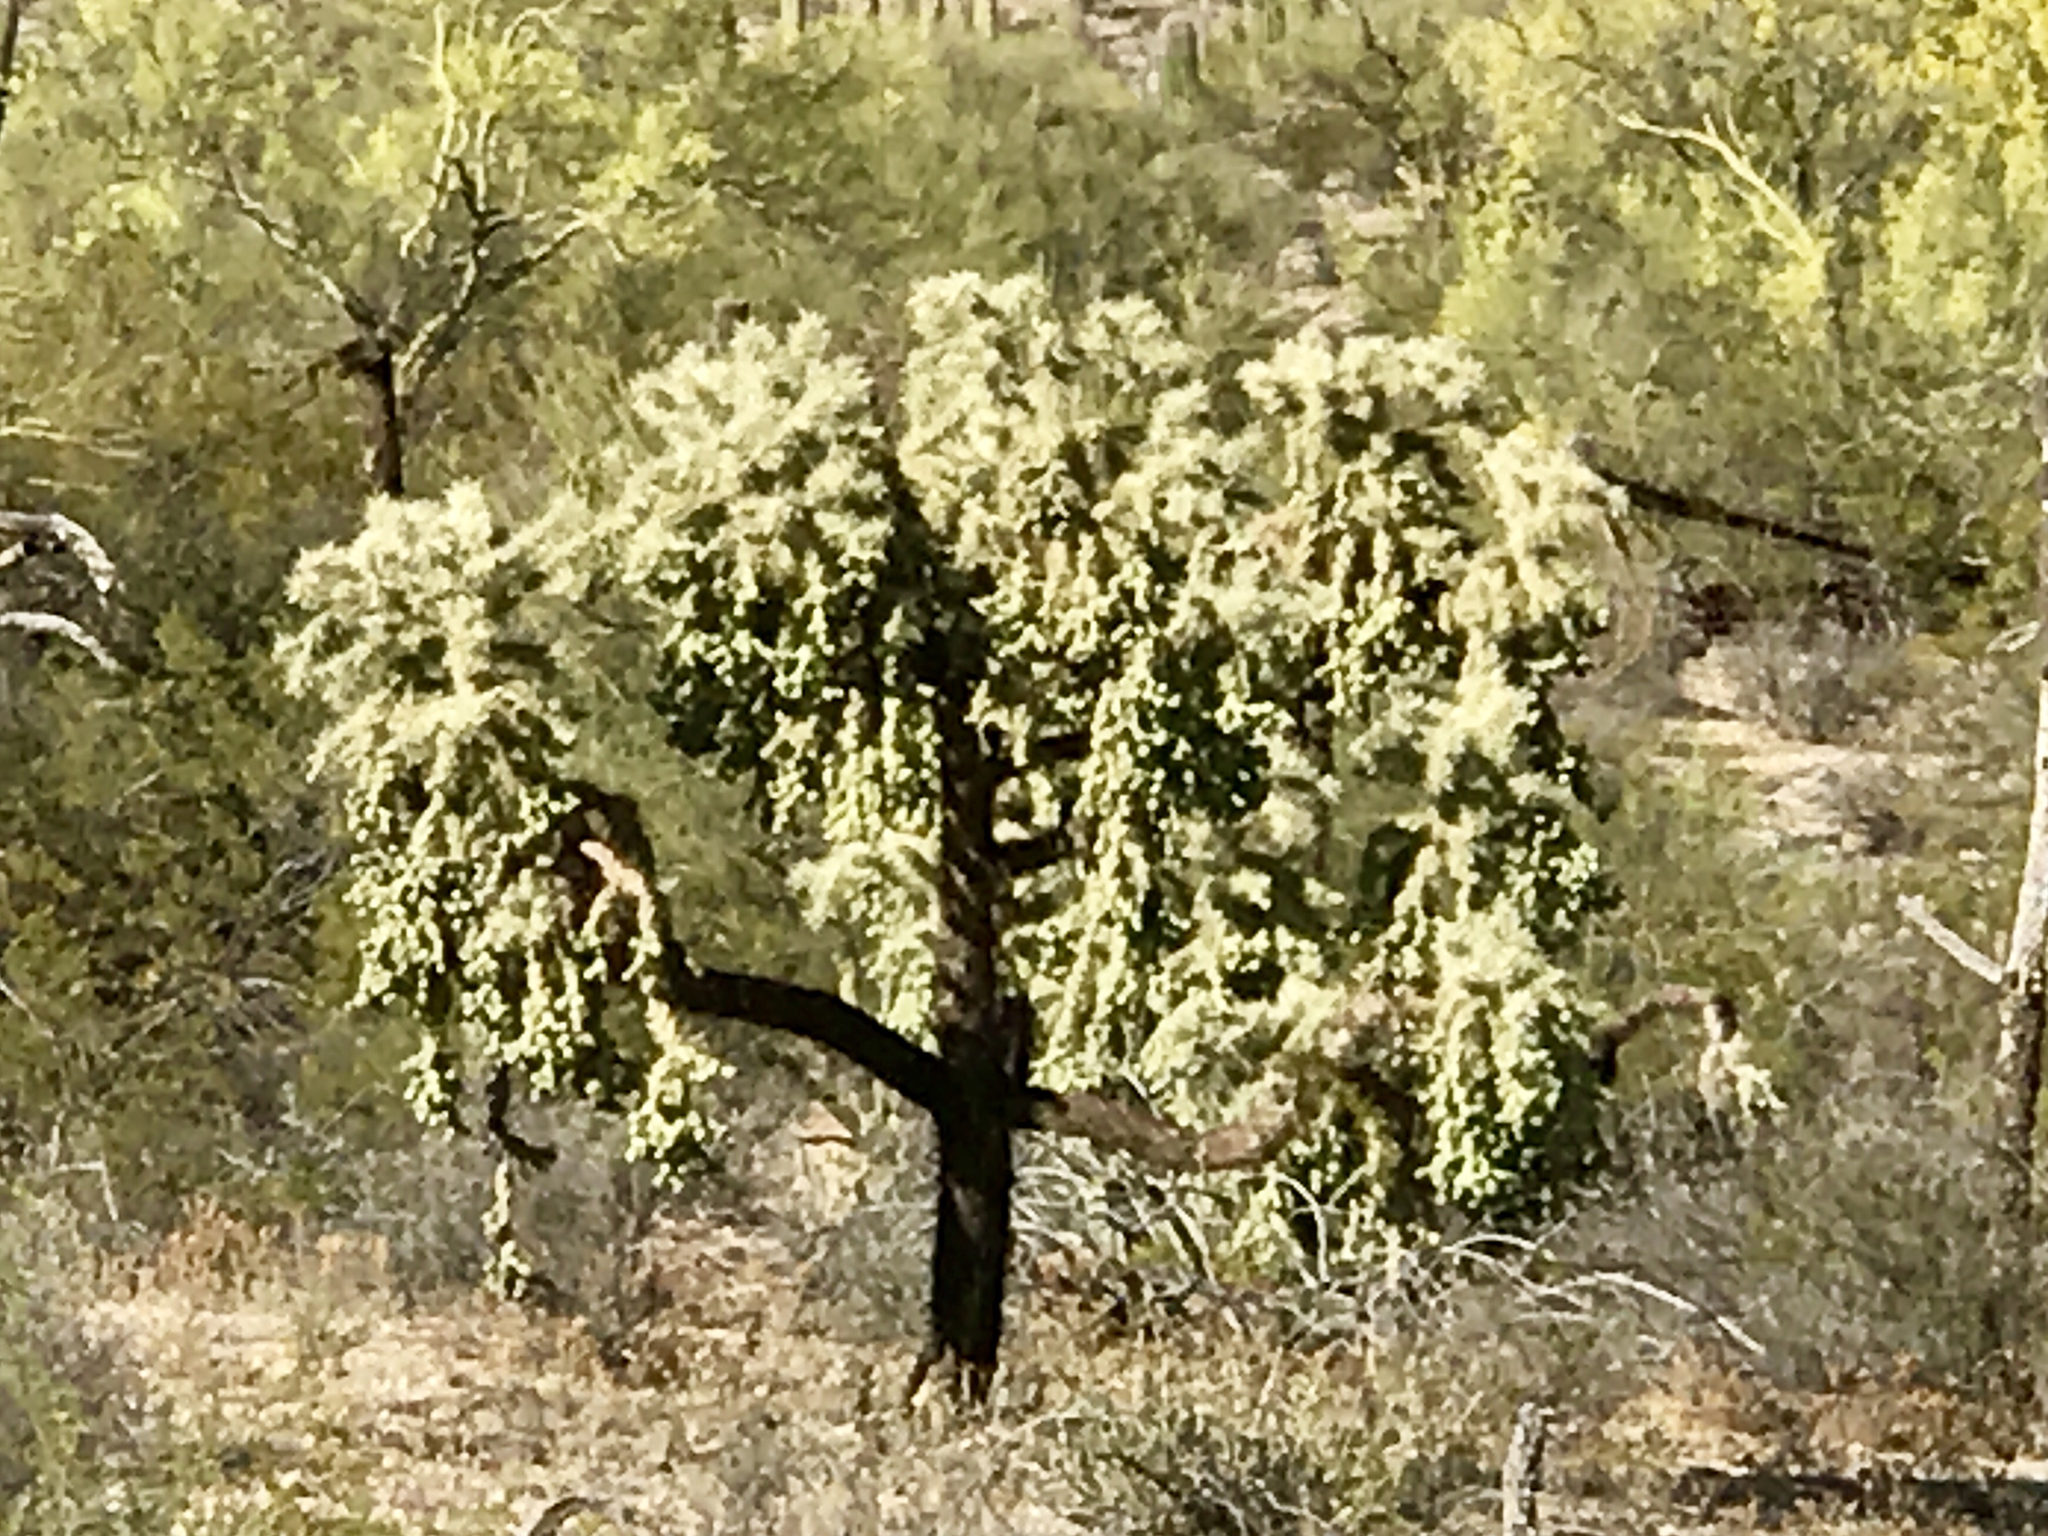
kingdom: Plantae
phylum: Tracheophyta
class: Magnoliopsida
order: Caryophyllales
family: Cactaceae
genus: Cylindropuntia
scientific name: Cylindropuntia fulgida
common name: Jumping cholla
